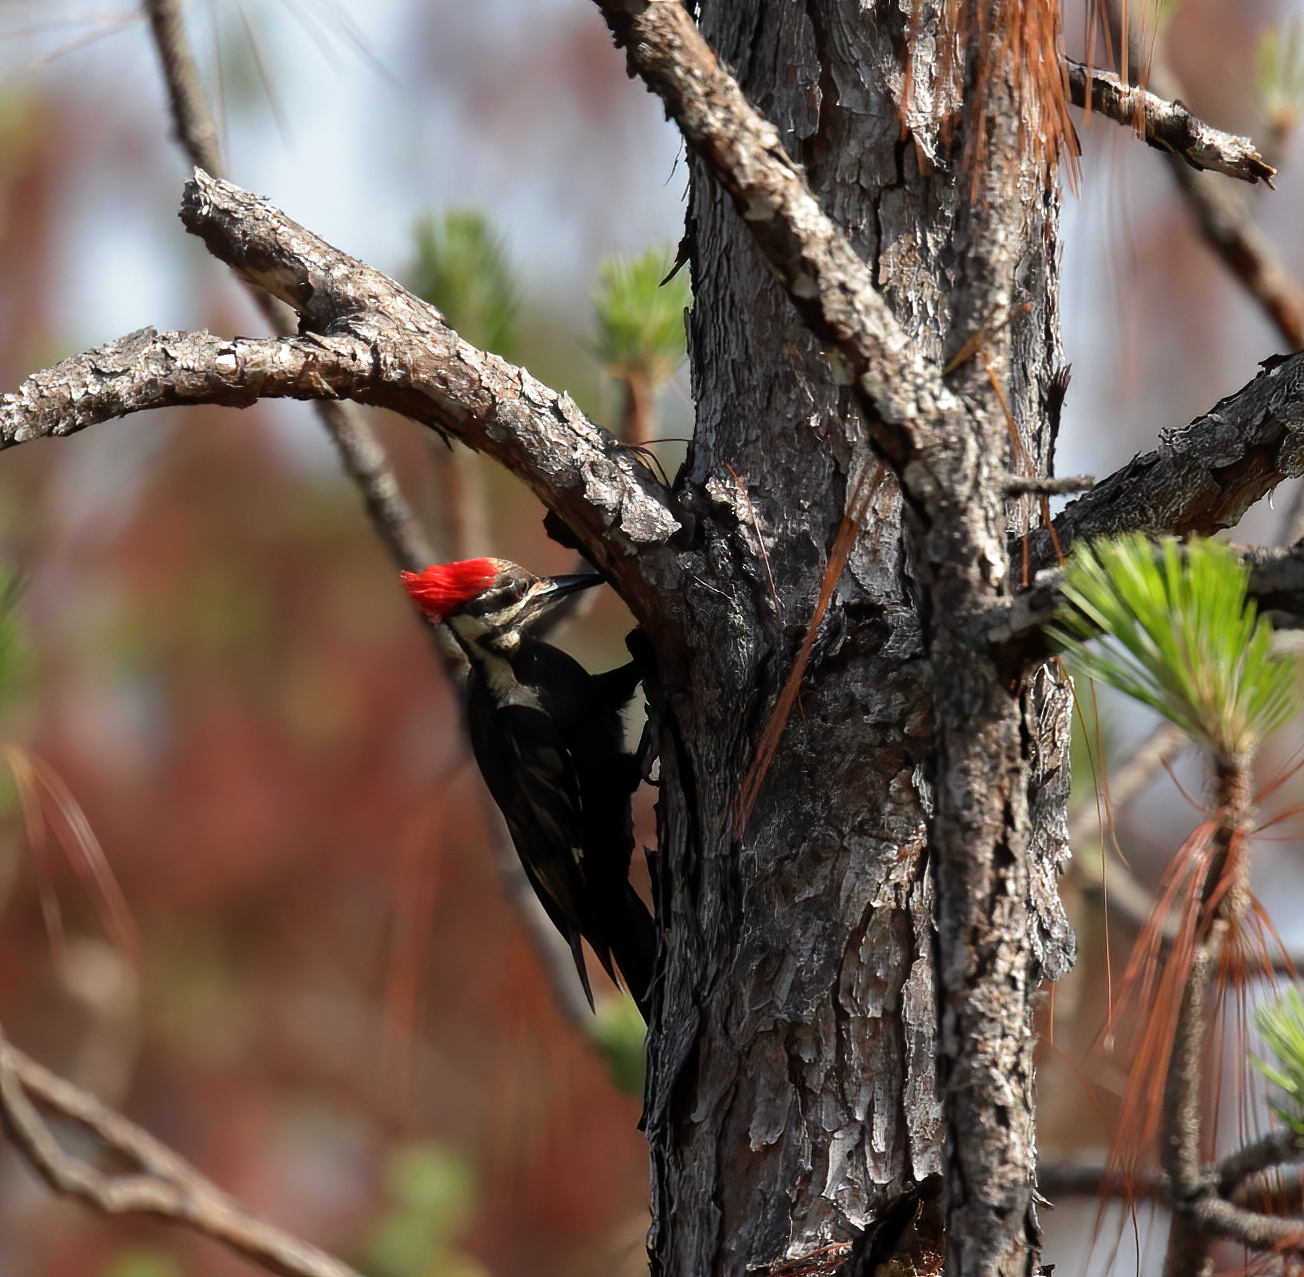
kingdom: Animalia
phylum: Chordata
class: Aves
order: Piciformes
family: Picidae
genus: Dryocopus
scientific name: Dryocopus pileatus
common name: Pileated woodpecker
